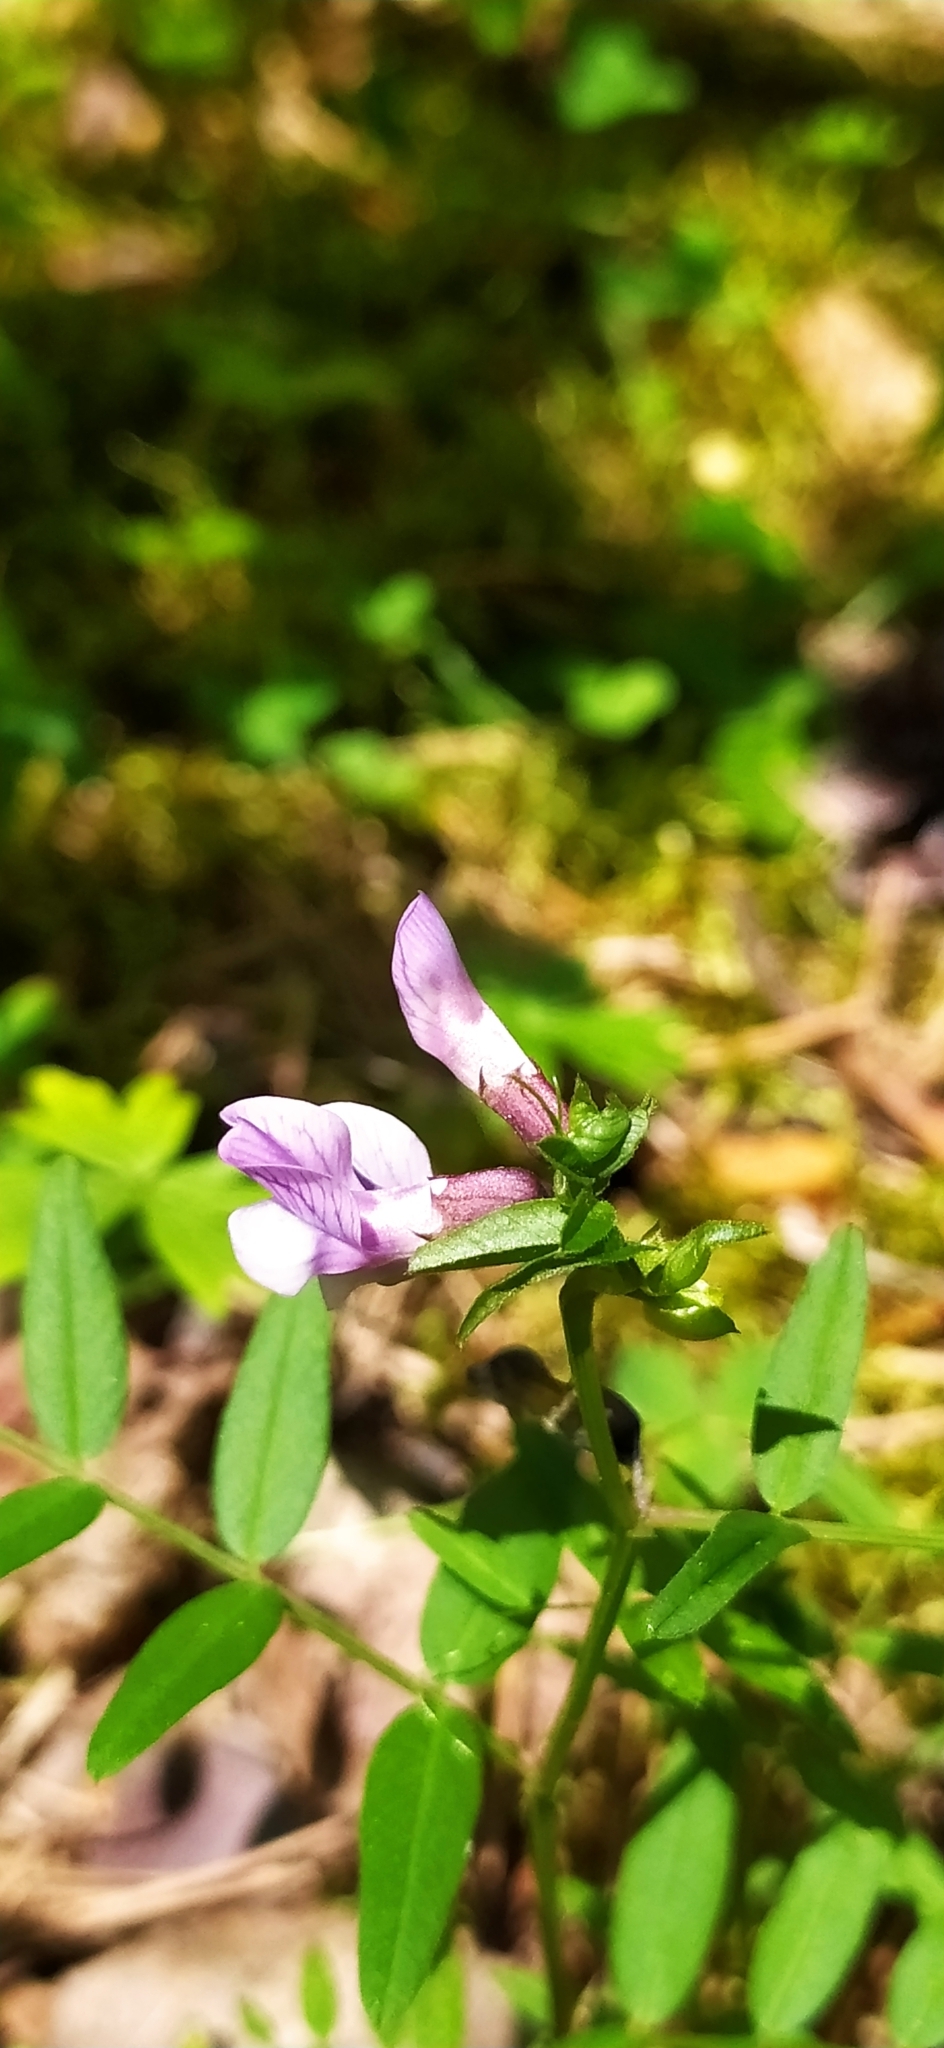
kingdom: Plantae
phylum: Tracheophyta
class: Magnoliopsida
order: Fabales
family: Fabaceae
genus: Vicia
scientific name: Vicia sepium
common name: Bush vetch
